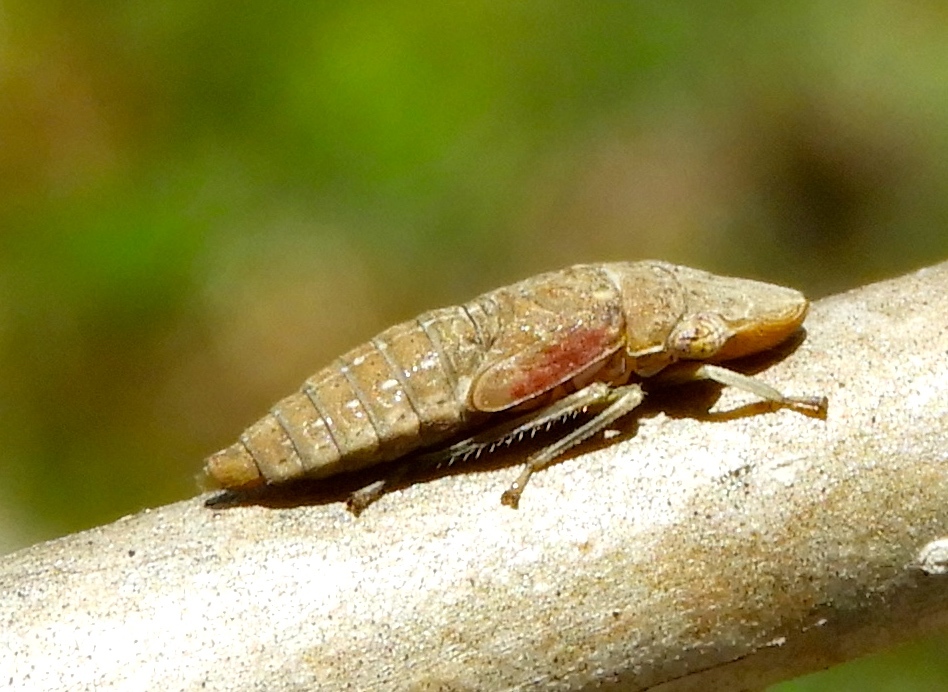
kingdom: Animalia
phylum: Arthropoda
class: Insecta
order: Hemiptera
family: Cicadellidae
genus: Homalodisca
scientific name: Homalodisca
